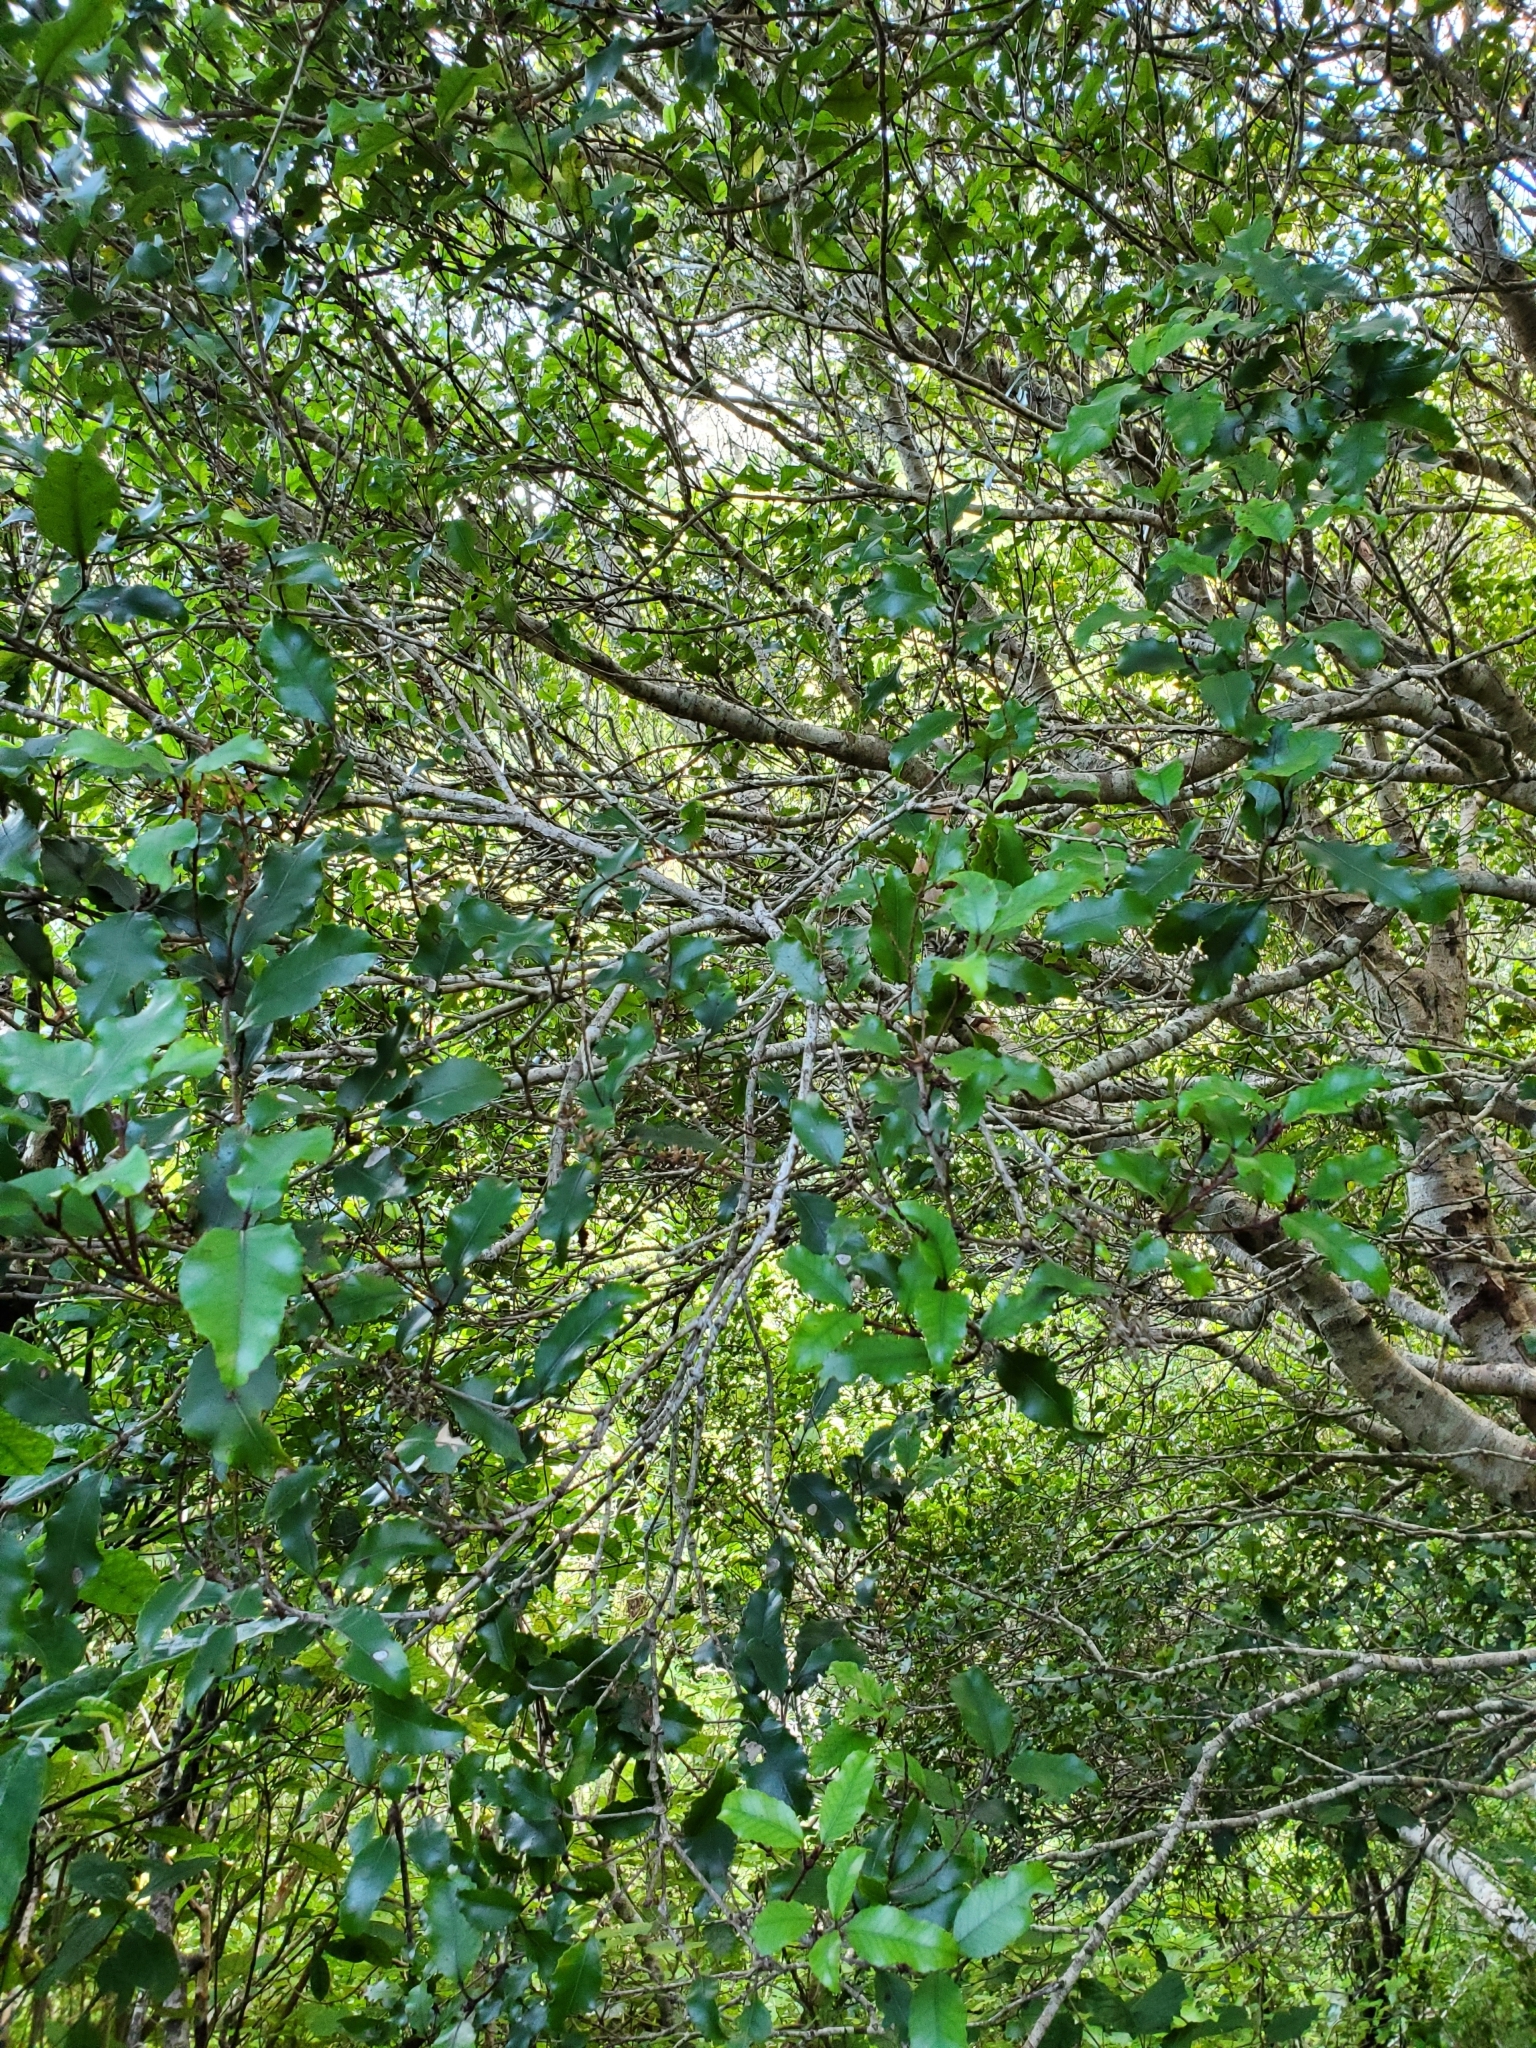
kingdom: Plantae
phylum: Tracheophyta
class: Magnoliopsida
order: Oxalidales
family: Cunoniaceae
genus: Pterophylla
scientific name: Pterophylla racemosa
